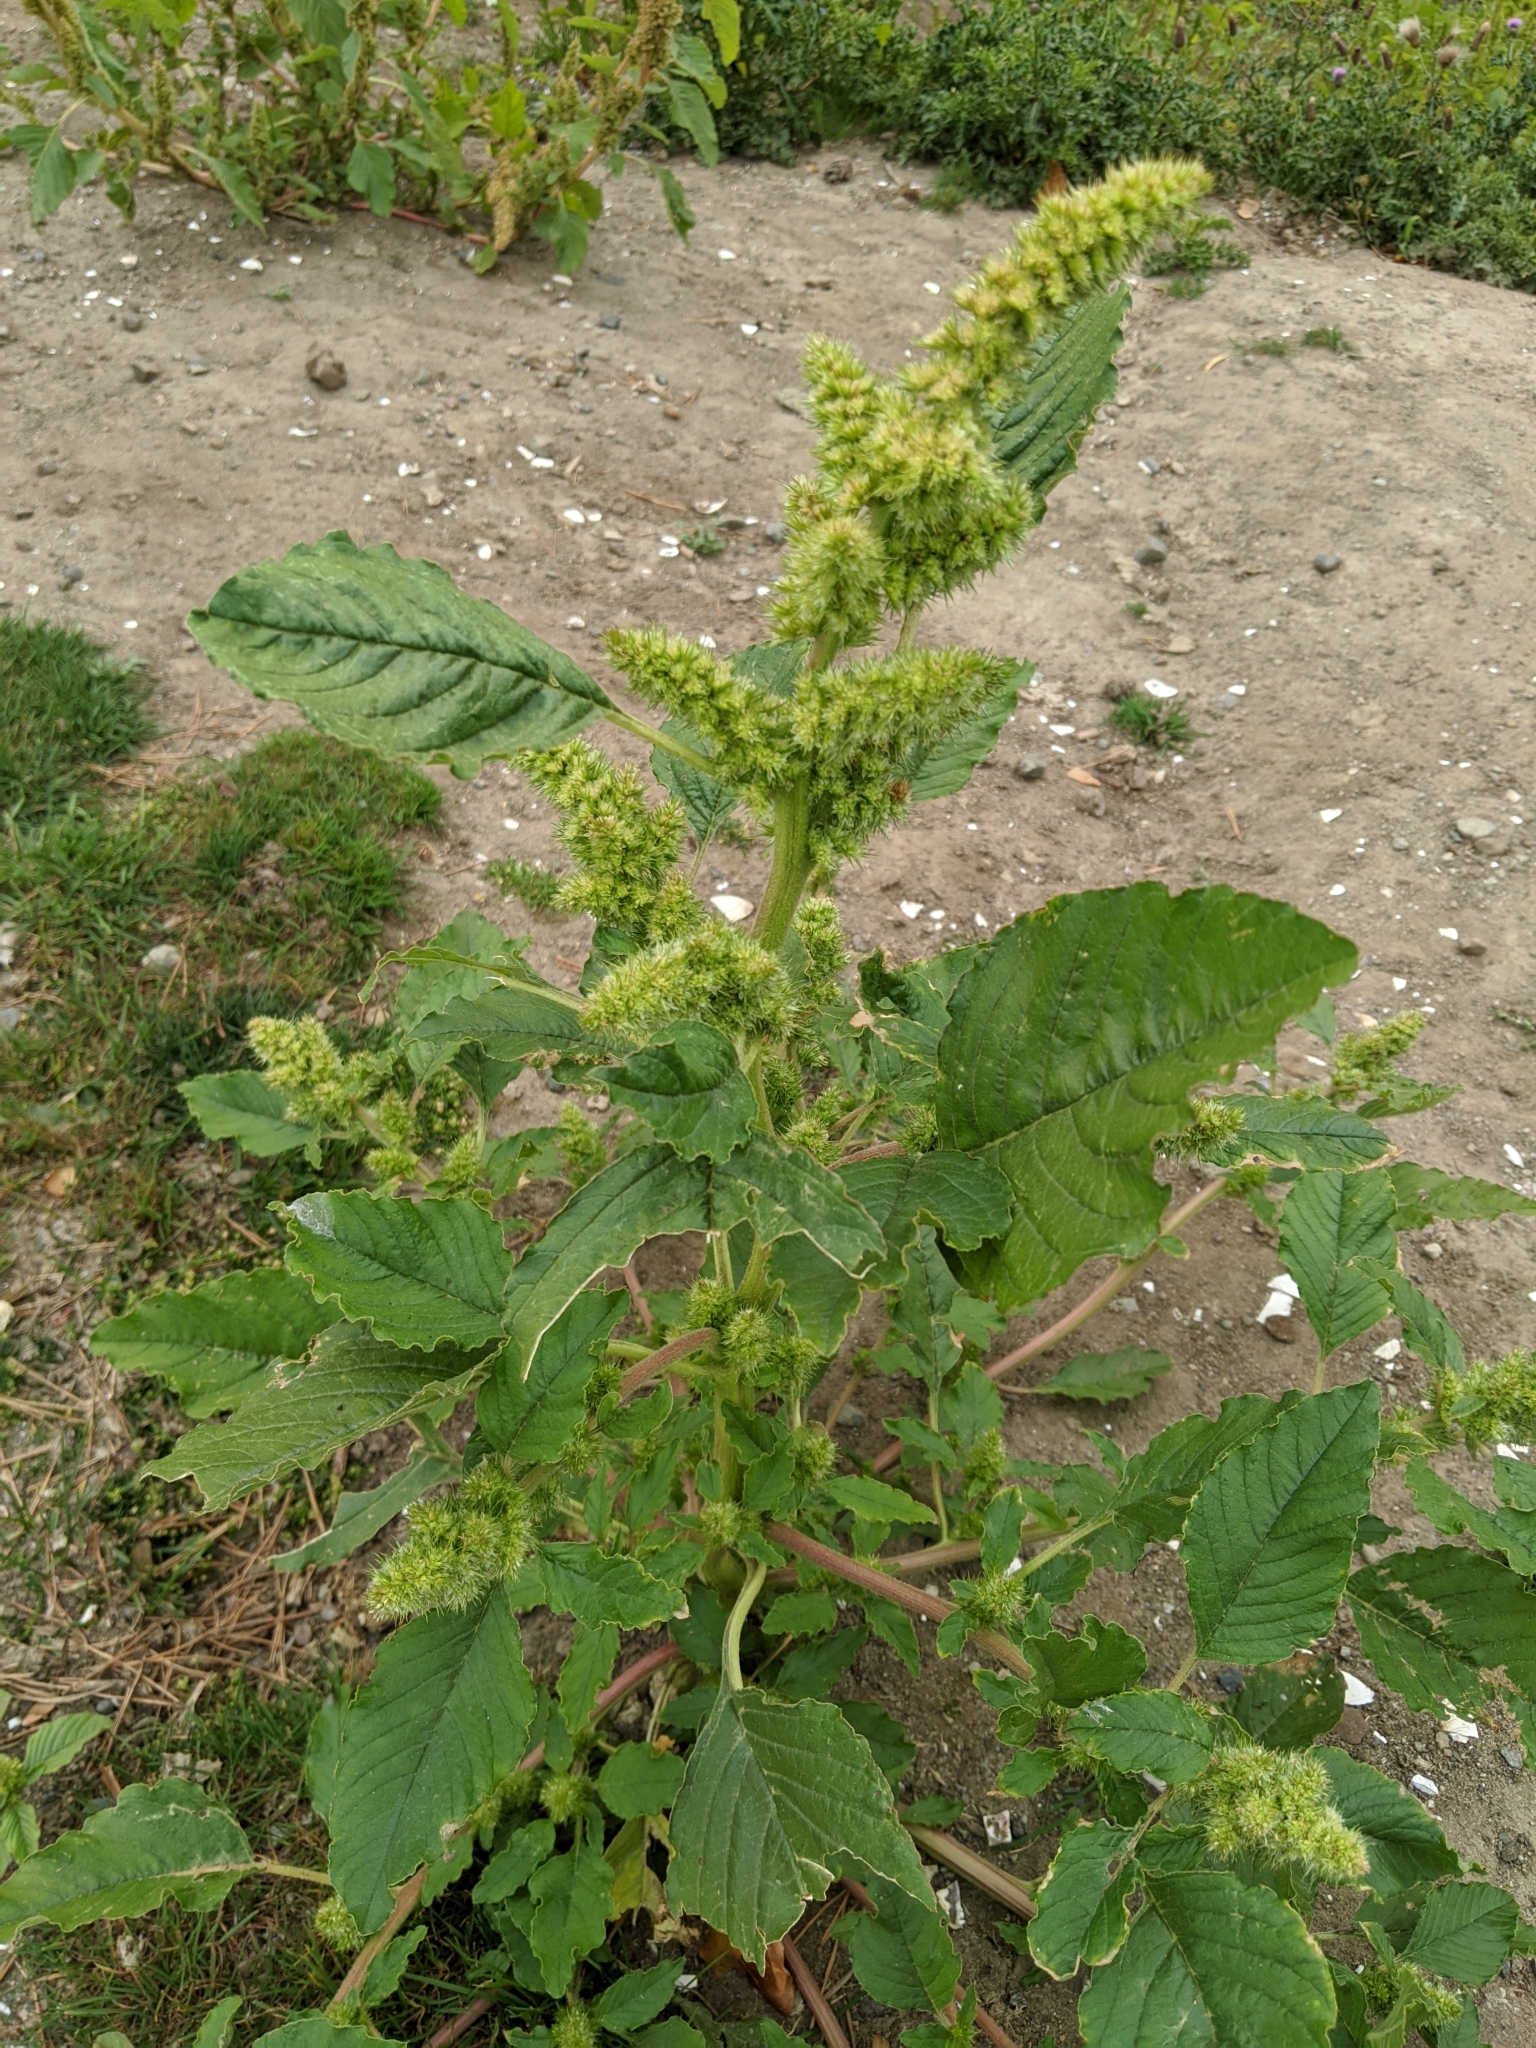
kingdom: Plantae
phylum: Tracheophyta
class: Magnoliopsida
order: Caryophyllales
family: Amaranthaceae
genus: Amaranthus
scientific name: Amaranthus retroflexus
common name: Redroot amaranth
